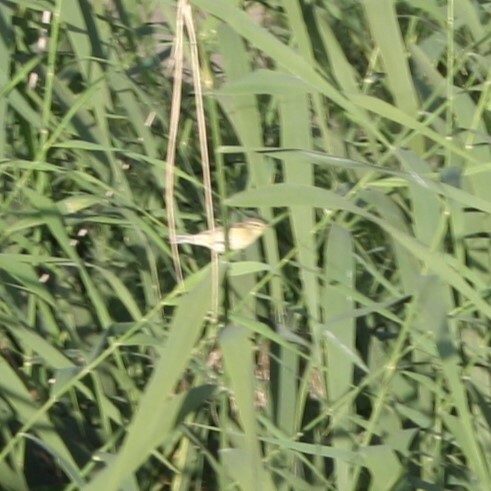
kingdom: Animalia
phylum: Chordata
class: Aves
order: Passeriformes
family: Phylloscopidae
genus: Phylloscopus
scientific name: Phylloscopus trochilus
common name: Willow warbler
